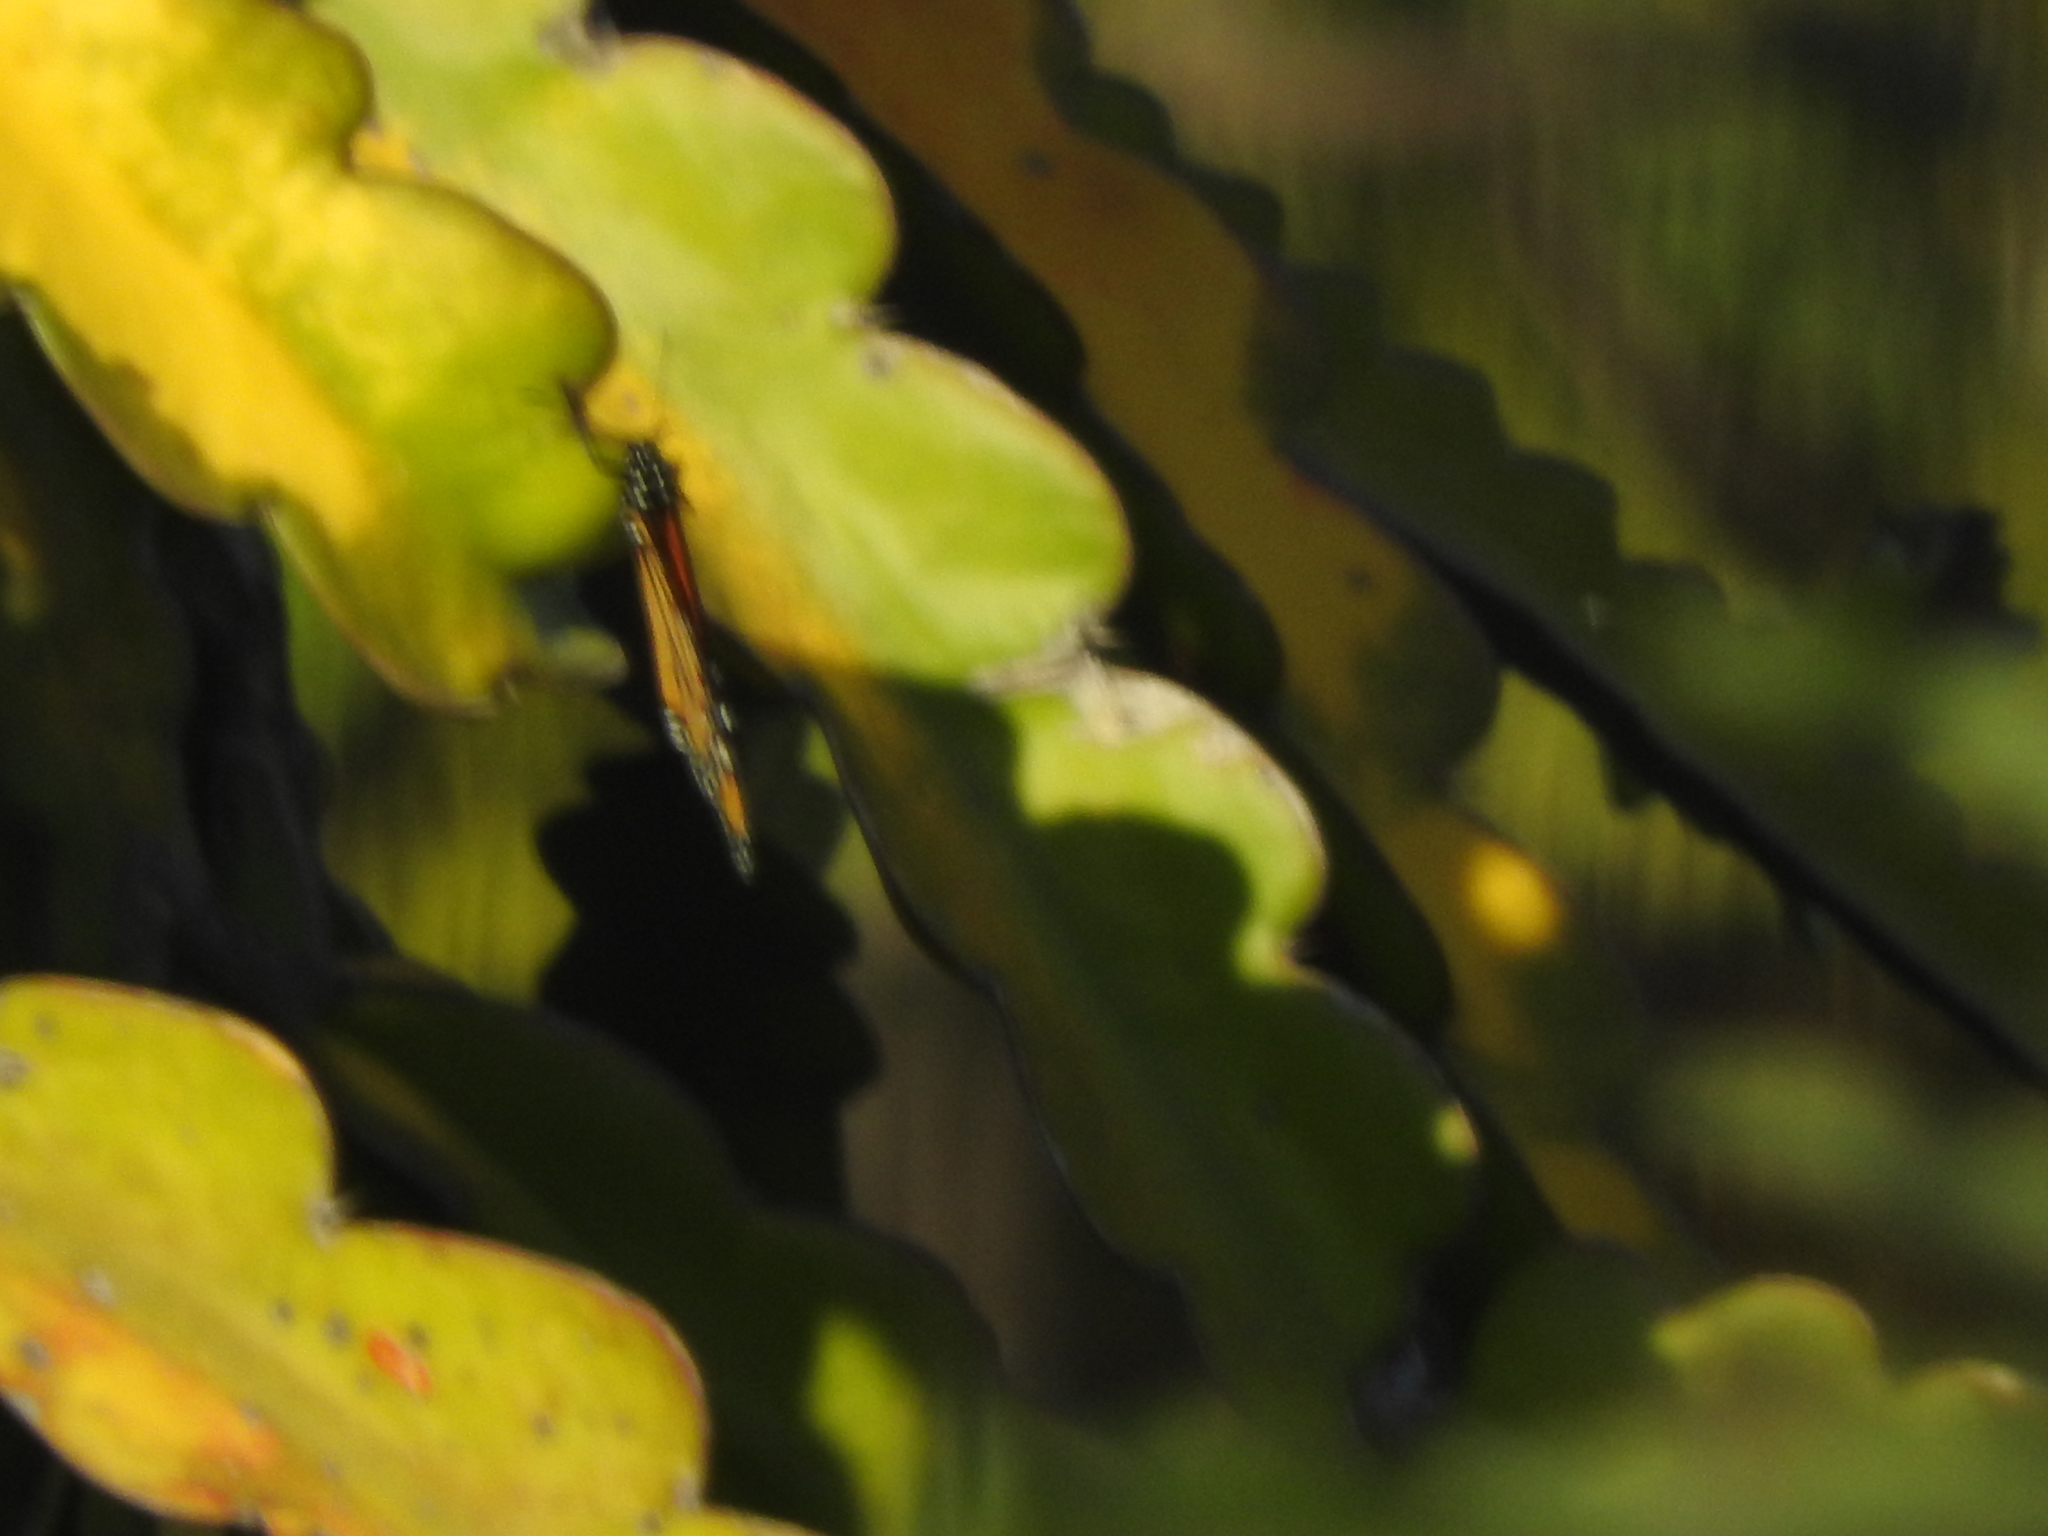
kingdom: Animalia
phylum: Arthropoda
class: Insecta
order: Lepidoptera
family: Nymphalidae
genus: Danaus
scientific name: Danaus plexippus
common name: Monarch
